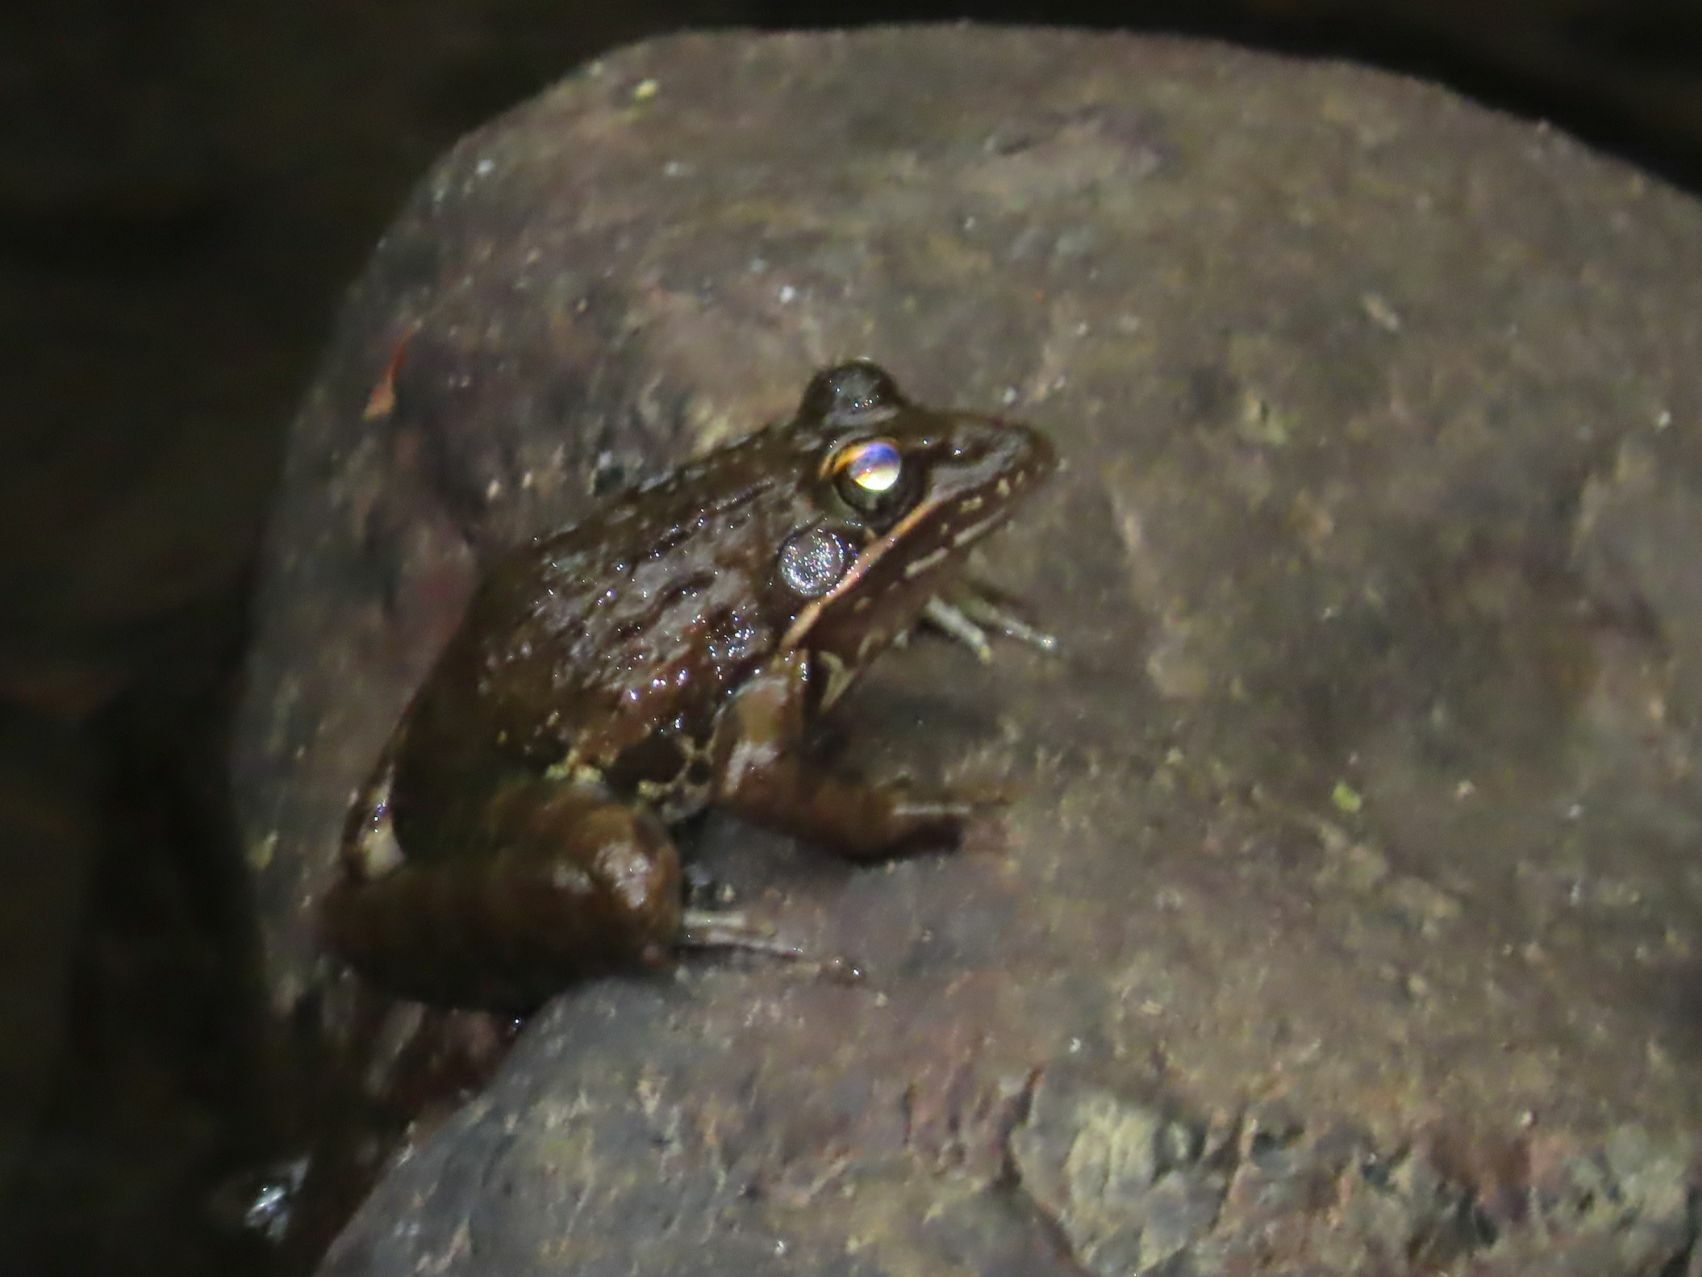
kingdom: Animalia
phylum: Chordata
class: Amphibia
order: Anura
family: Pyxicephalidae
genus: Amietia
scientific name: Amietia delalandii
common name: Delalande's river frog
